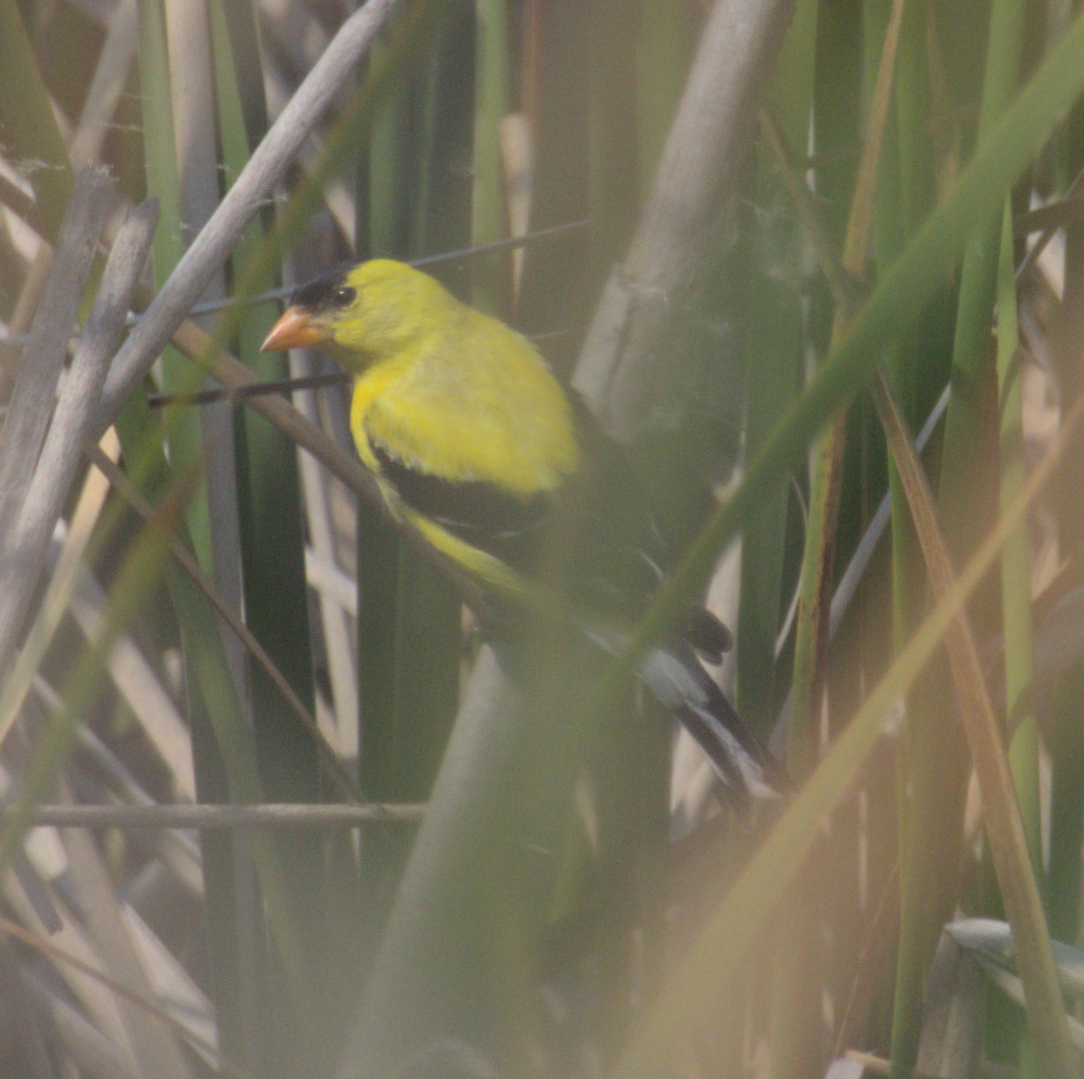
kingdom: Animalia
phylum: Chordata
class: Aves
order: Passeriformes
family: Fringillidae
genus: Spinus
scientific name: Spinus tristis
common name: American goldfinch
